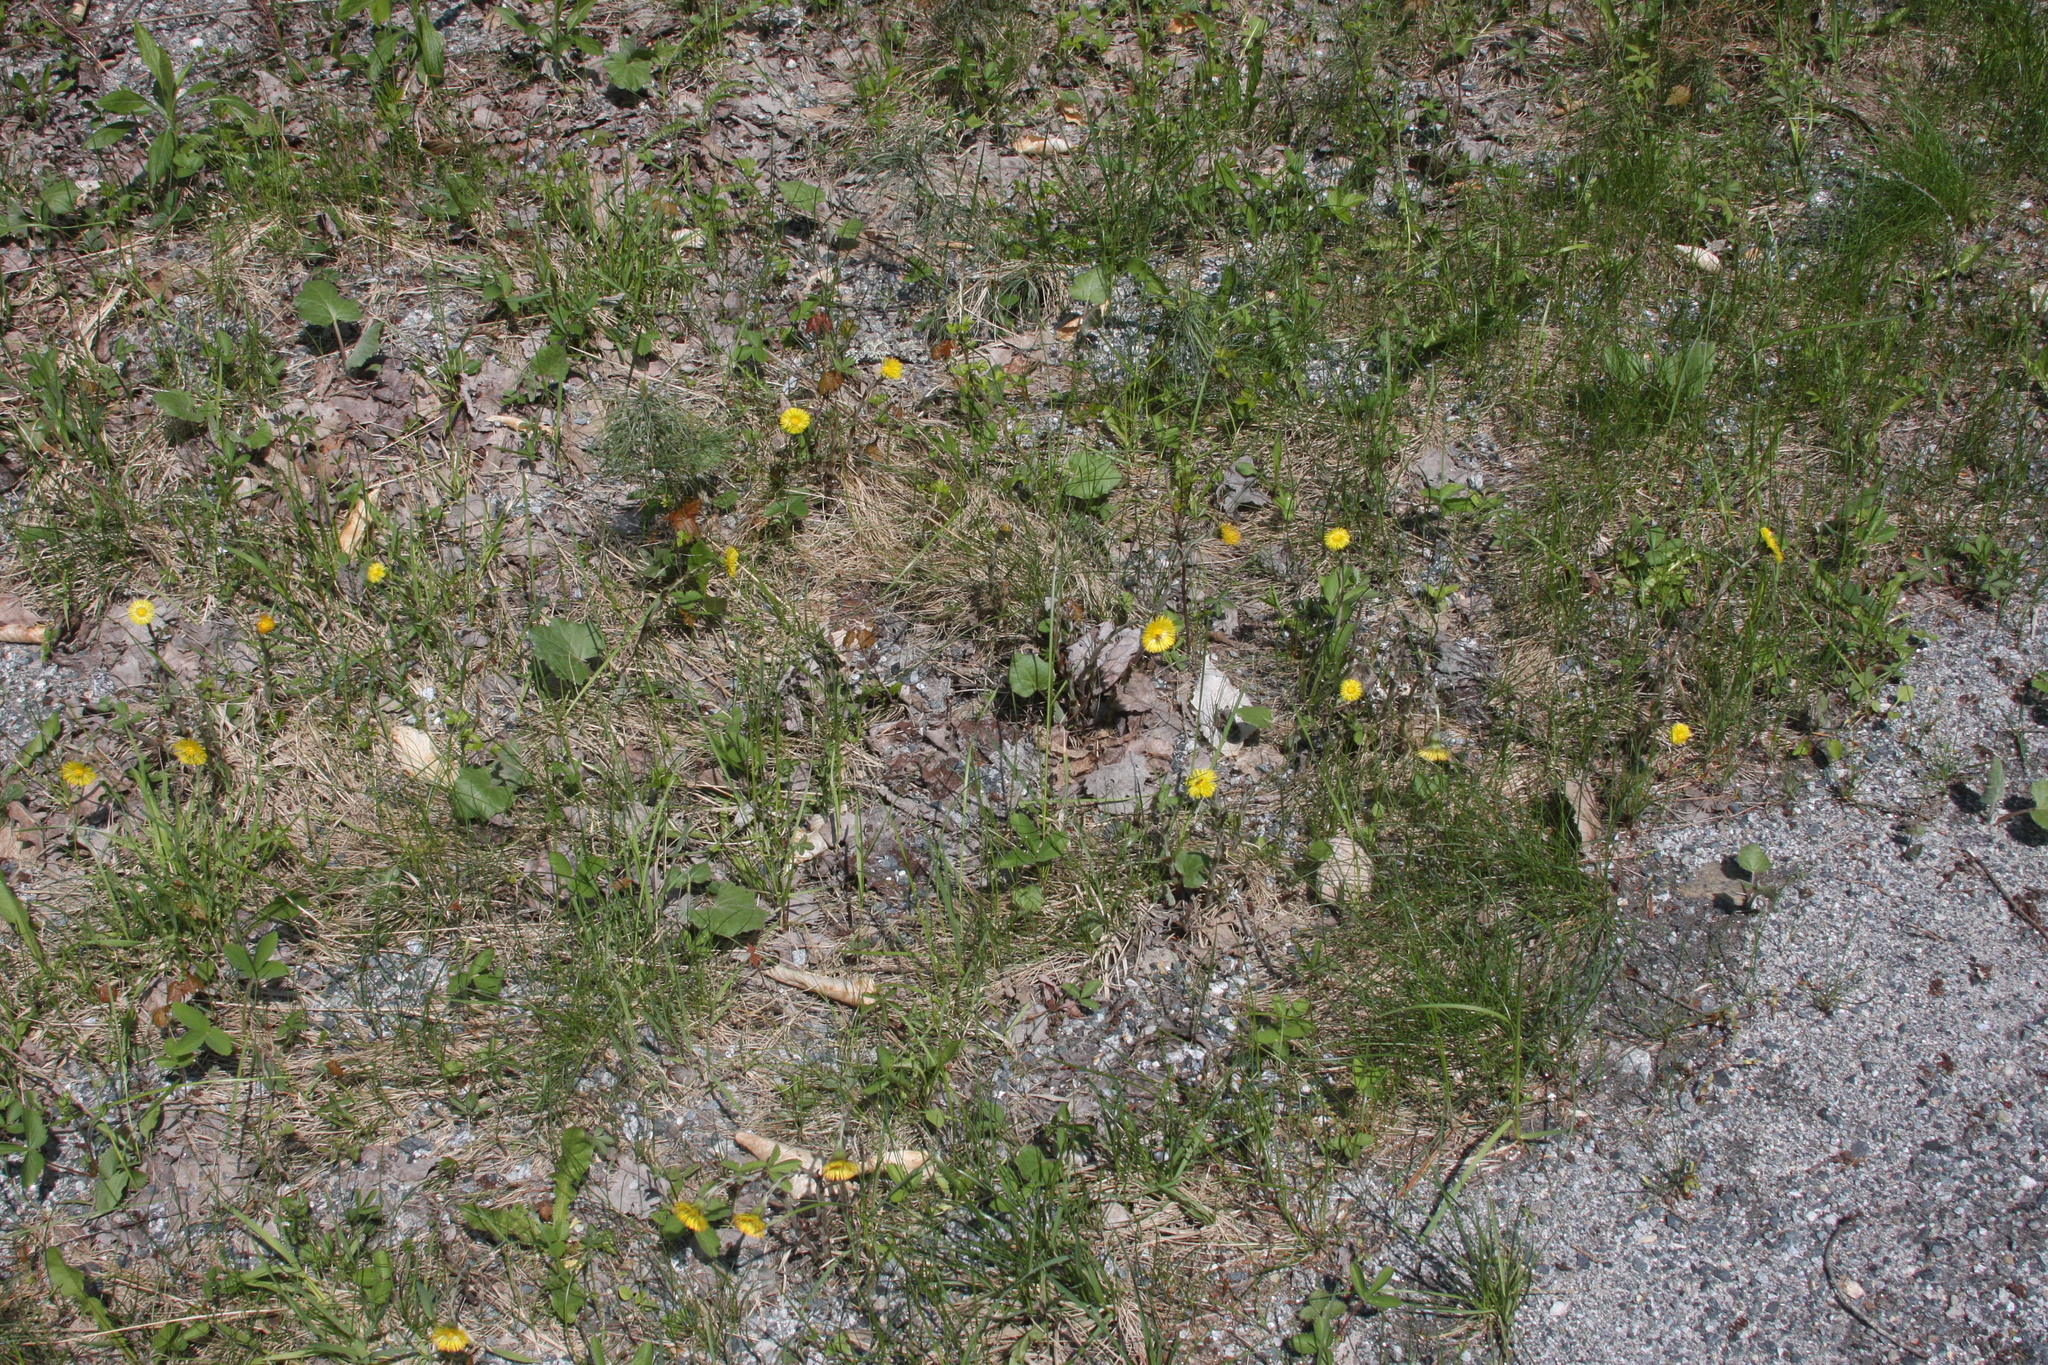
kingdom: Plantae
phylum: Tracheophyta
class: Magnoliopsida
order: Asterales
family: Asteraceae
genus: Tussilago
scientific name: Tussilago farfara
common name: Coltsfoot
